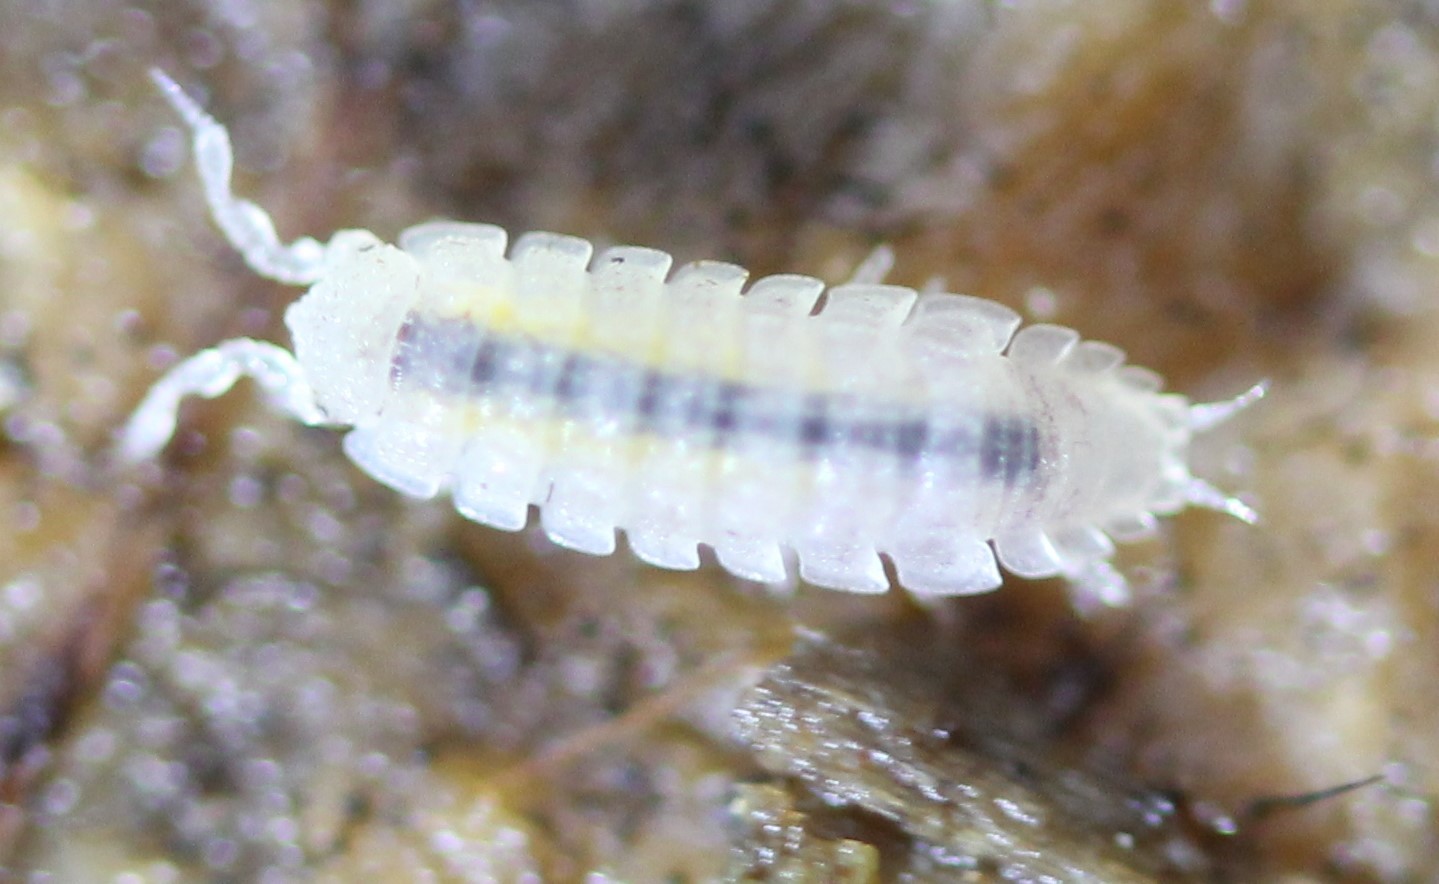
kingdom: Animalia
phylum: Arthropoda
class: Malacostraca
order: Isopoda
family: Trichoniscidae
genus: Haplophthalmus
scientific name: Haplophthalmus danicus
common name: Pillbug
